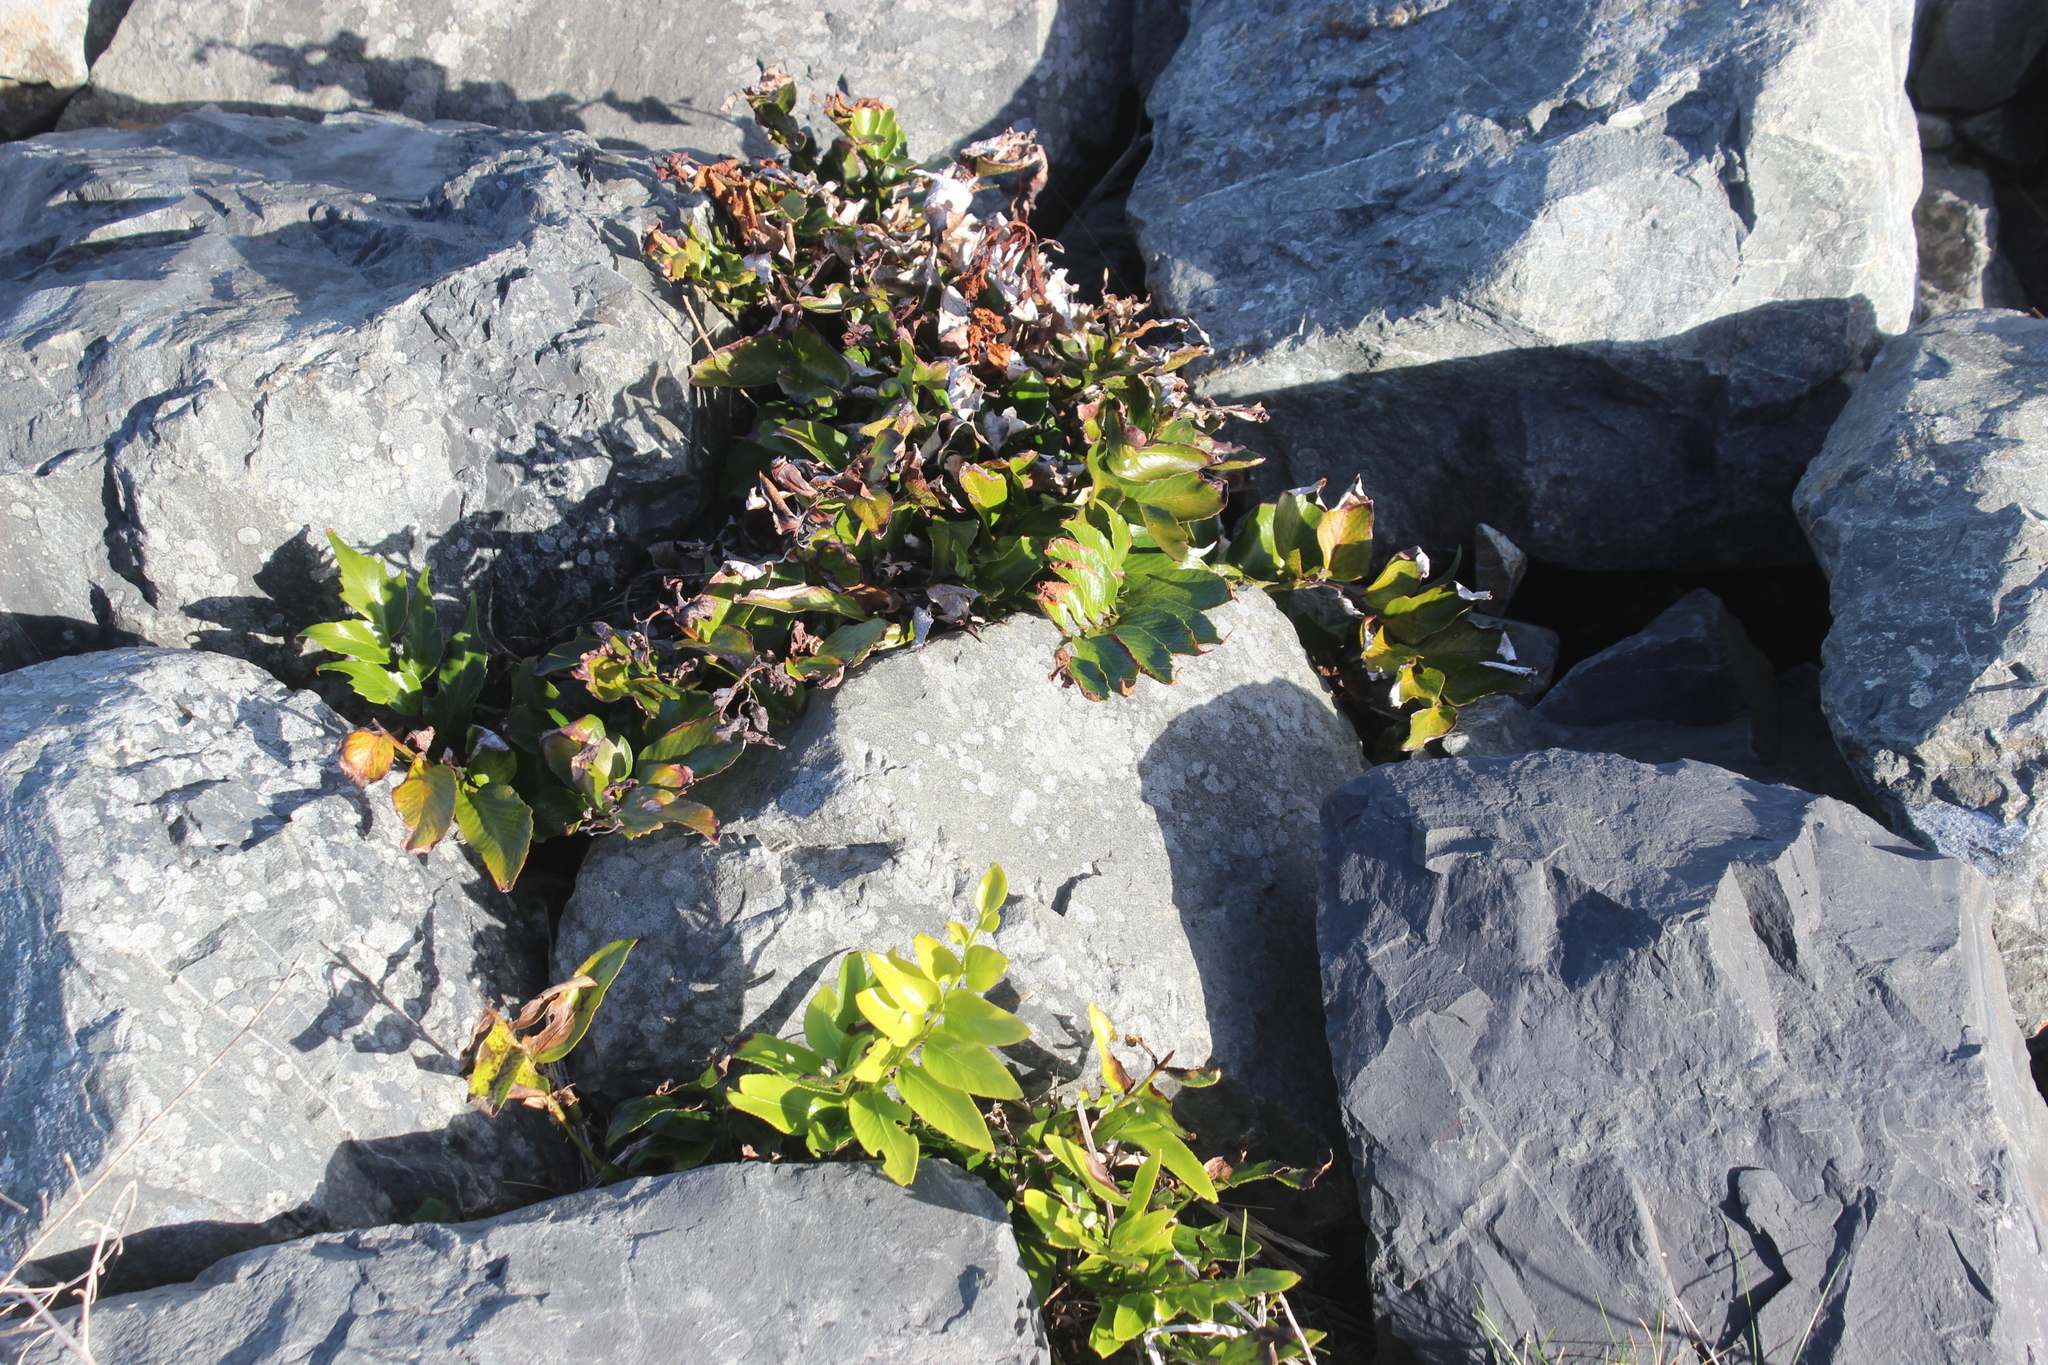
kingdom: Plantae
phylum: Tracheophyta
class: Polypodiopsida
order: Polypodiales
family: Aspleniaceae
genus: Asplenium
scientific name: Asplenium oblongifolium
